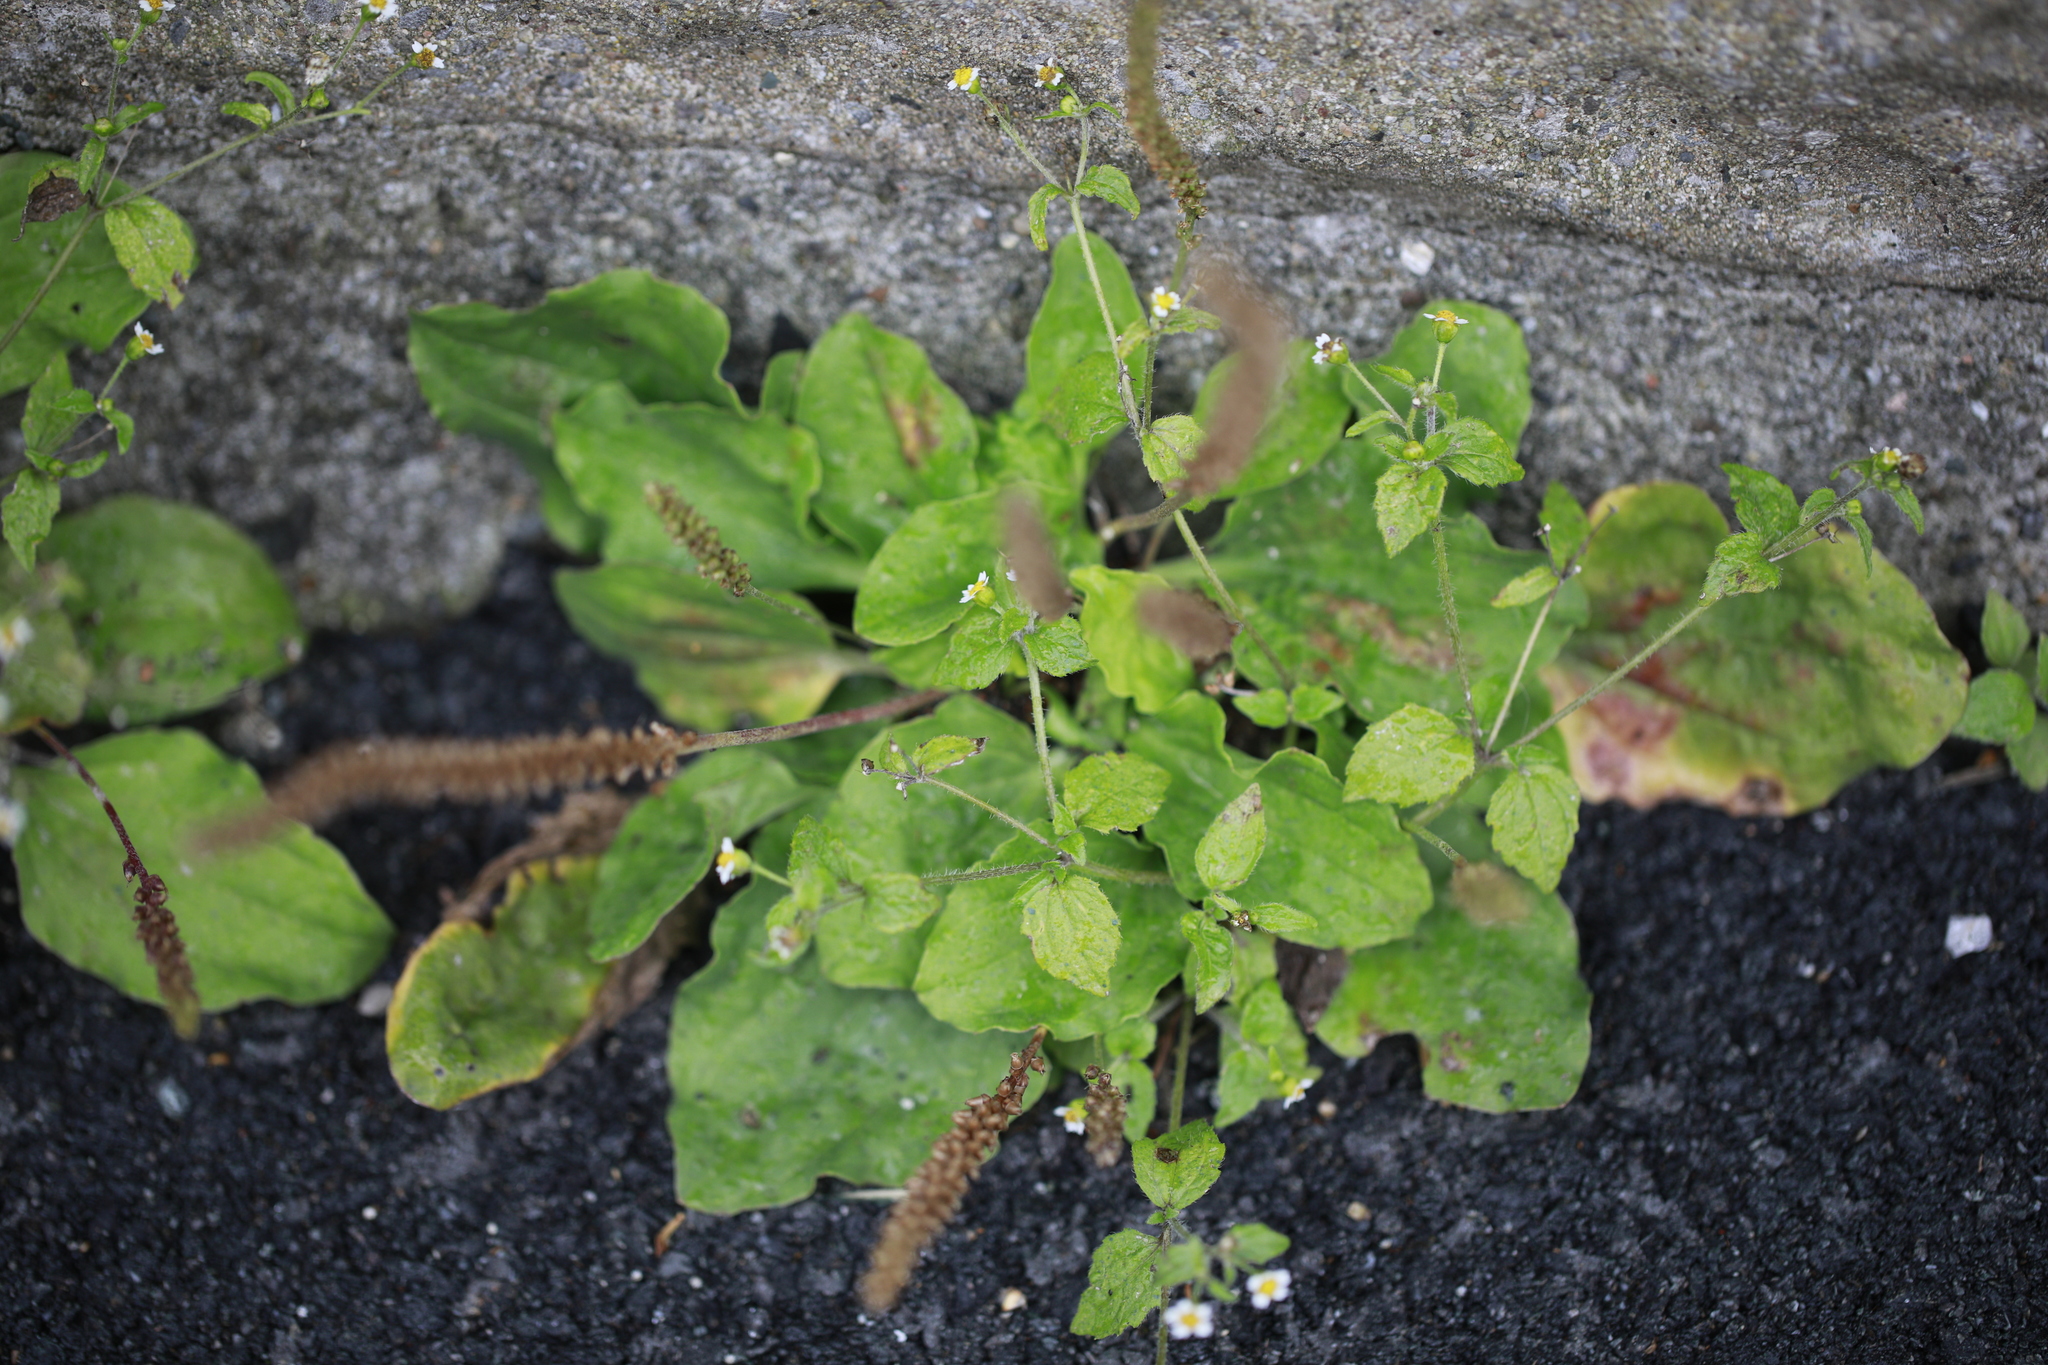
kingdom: Plantae
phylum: Tracheophyta
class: Magnoliopsida
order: Lamiales
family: Plantaginaceae
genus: Plantago
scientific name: Plantago major
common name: Common plantain
